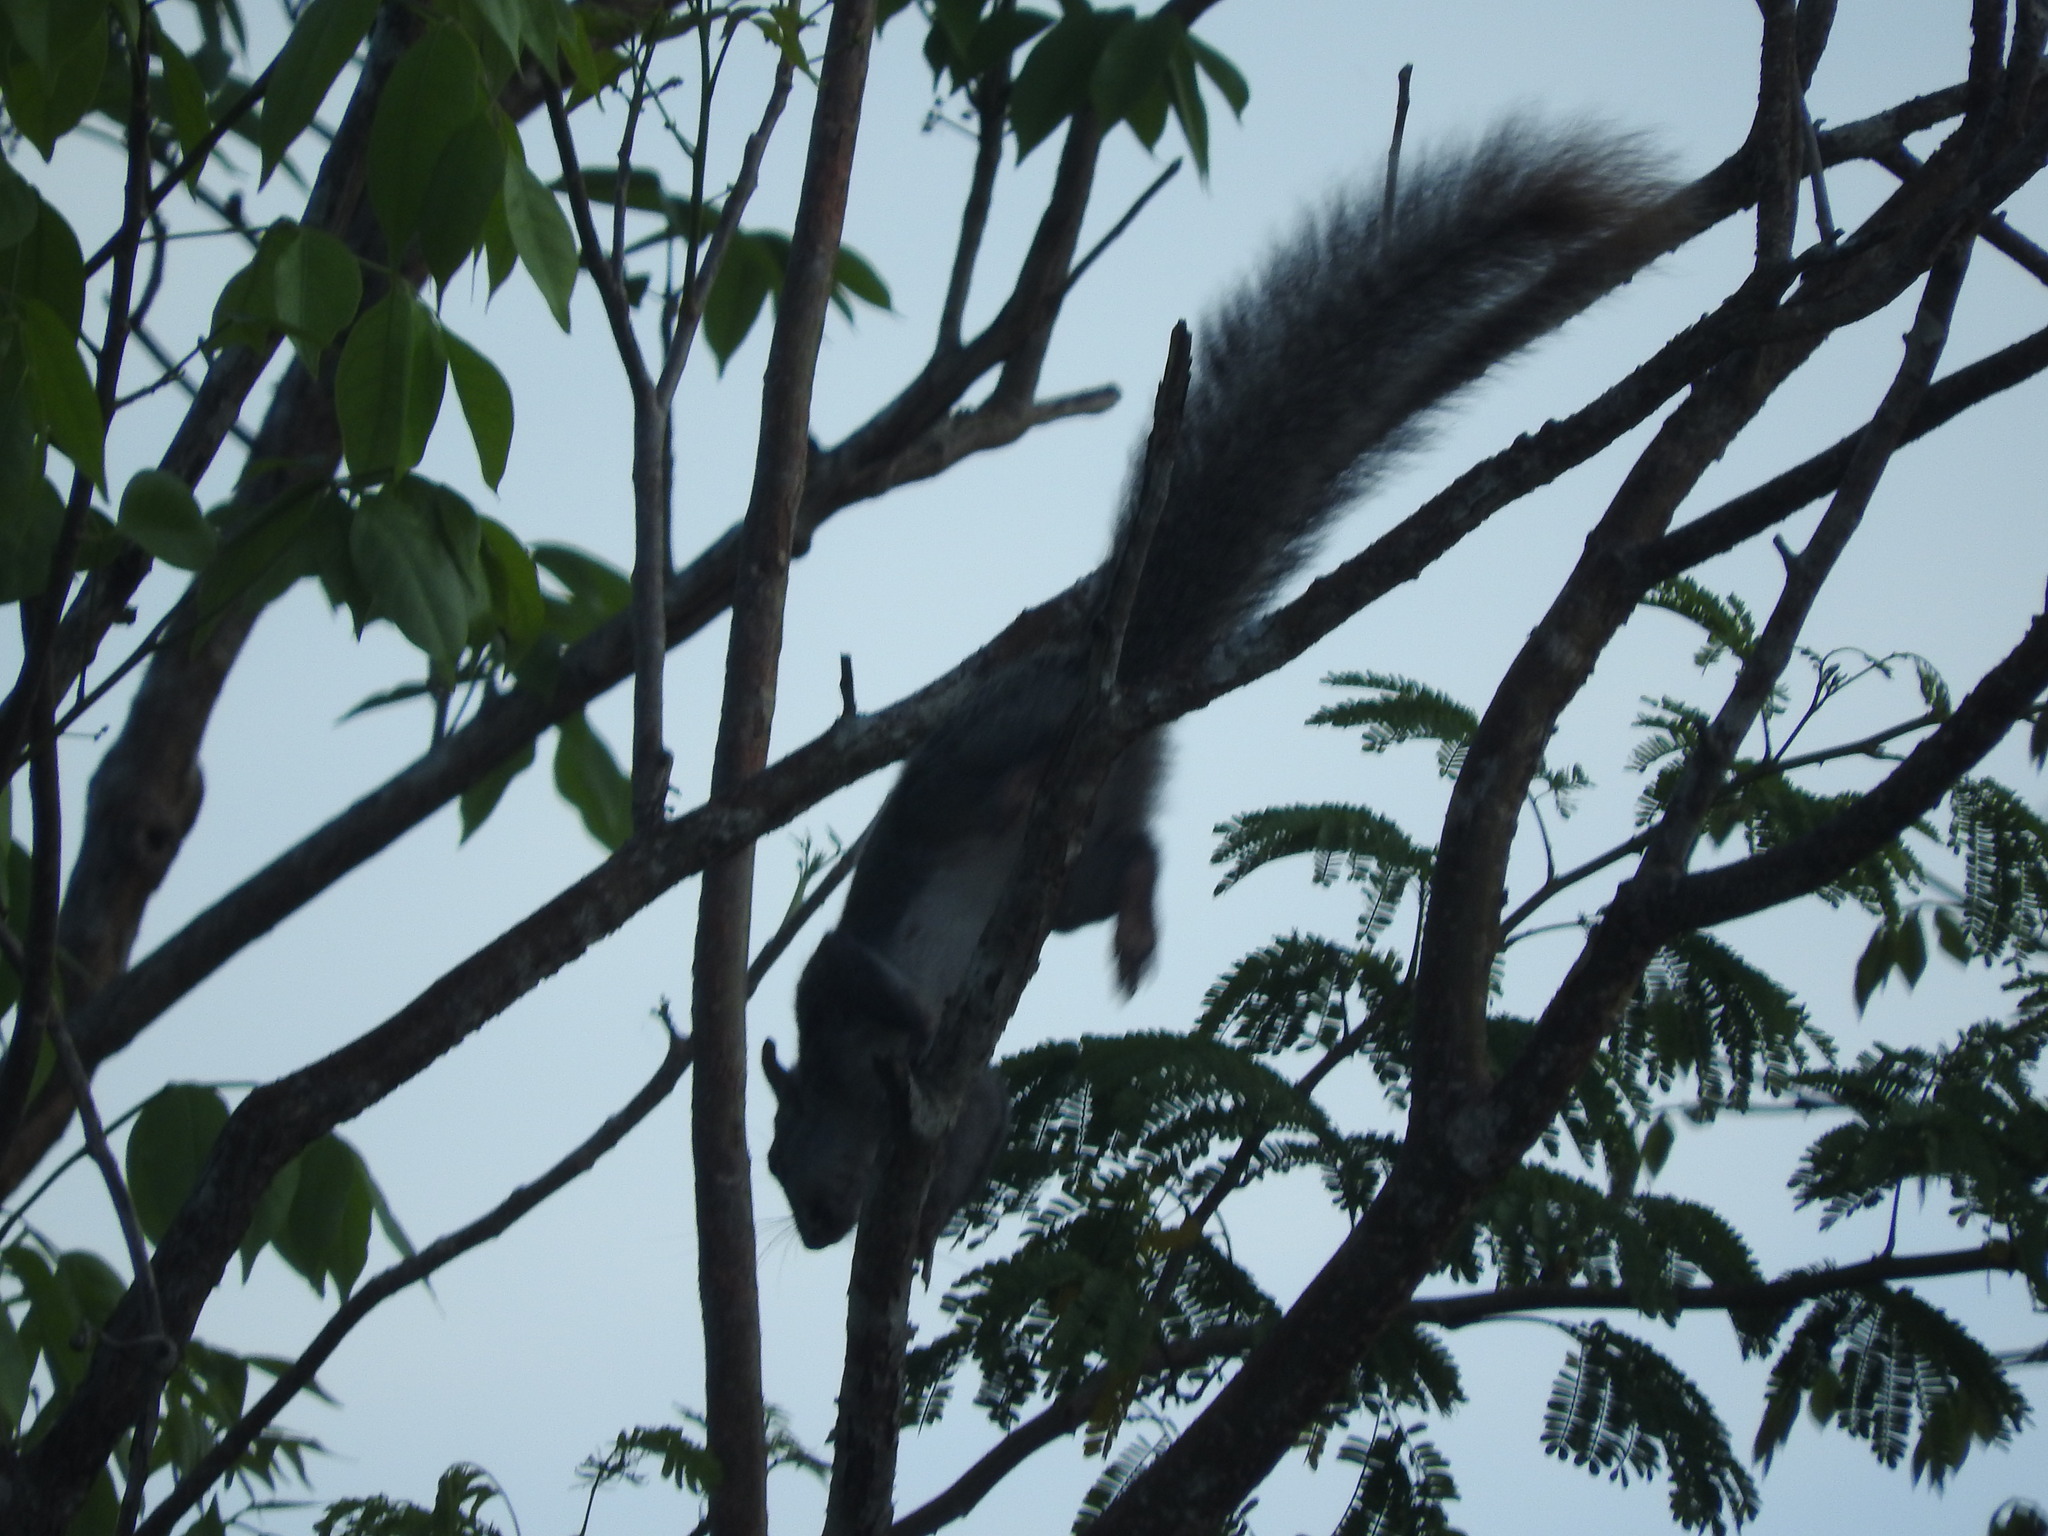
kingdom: Animalia
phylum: Chordata
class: Mammalia
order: Rodentia
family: Sciuridae
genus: Sciurus
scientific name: Sciurus yucatanensis
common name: Yucatan squirrel
